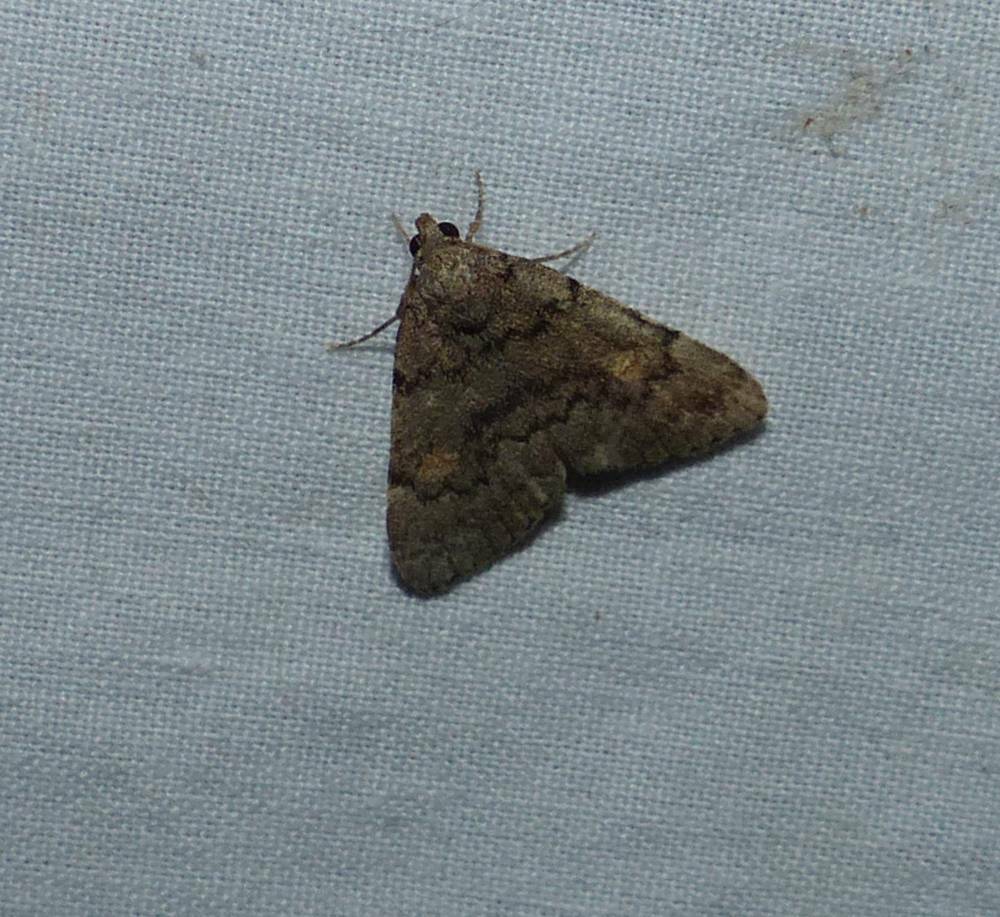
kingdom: Animalia
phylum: Arthropoda
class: Insecta
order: Lepidoptera
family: Erebidae
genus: Idia
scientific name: Idia aemula
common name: Common idia moth
